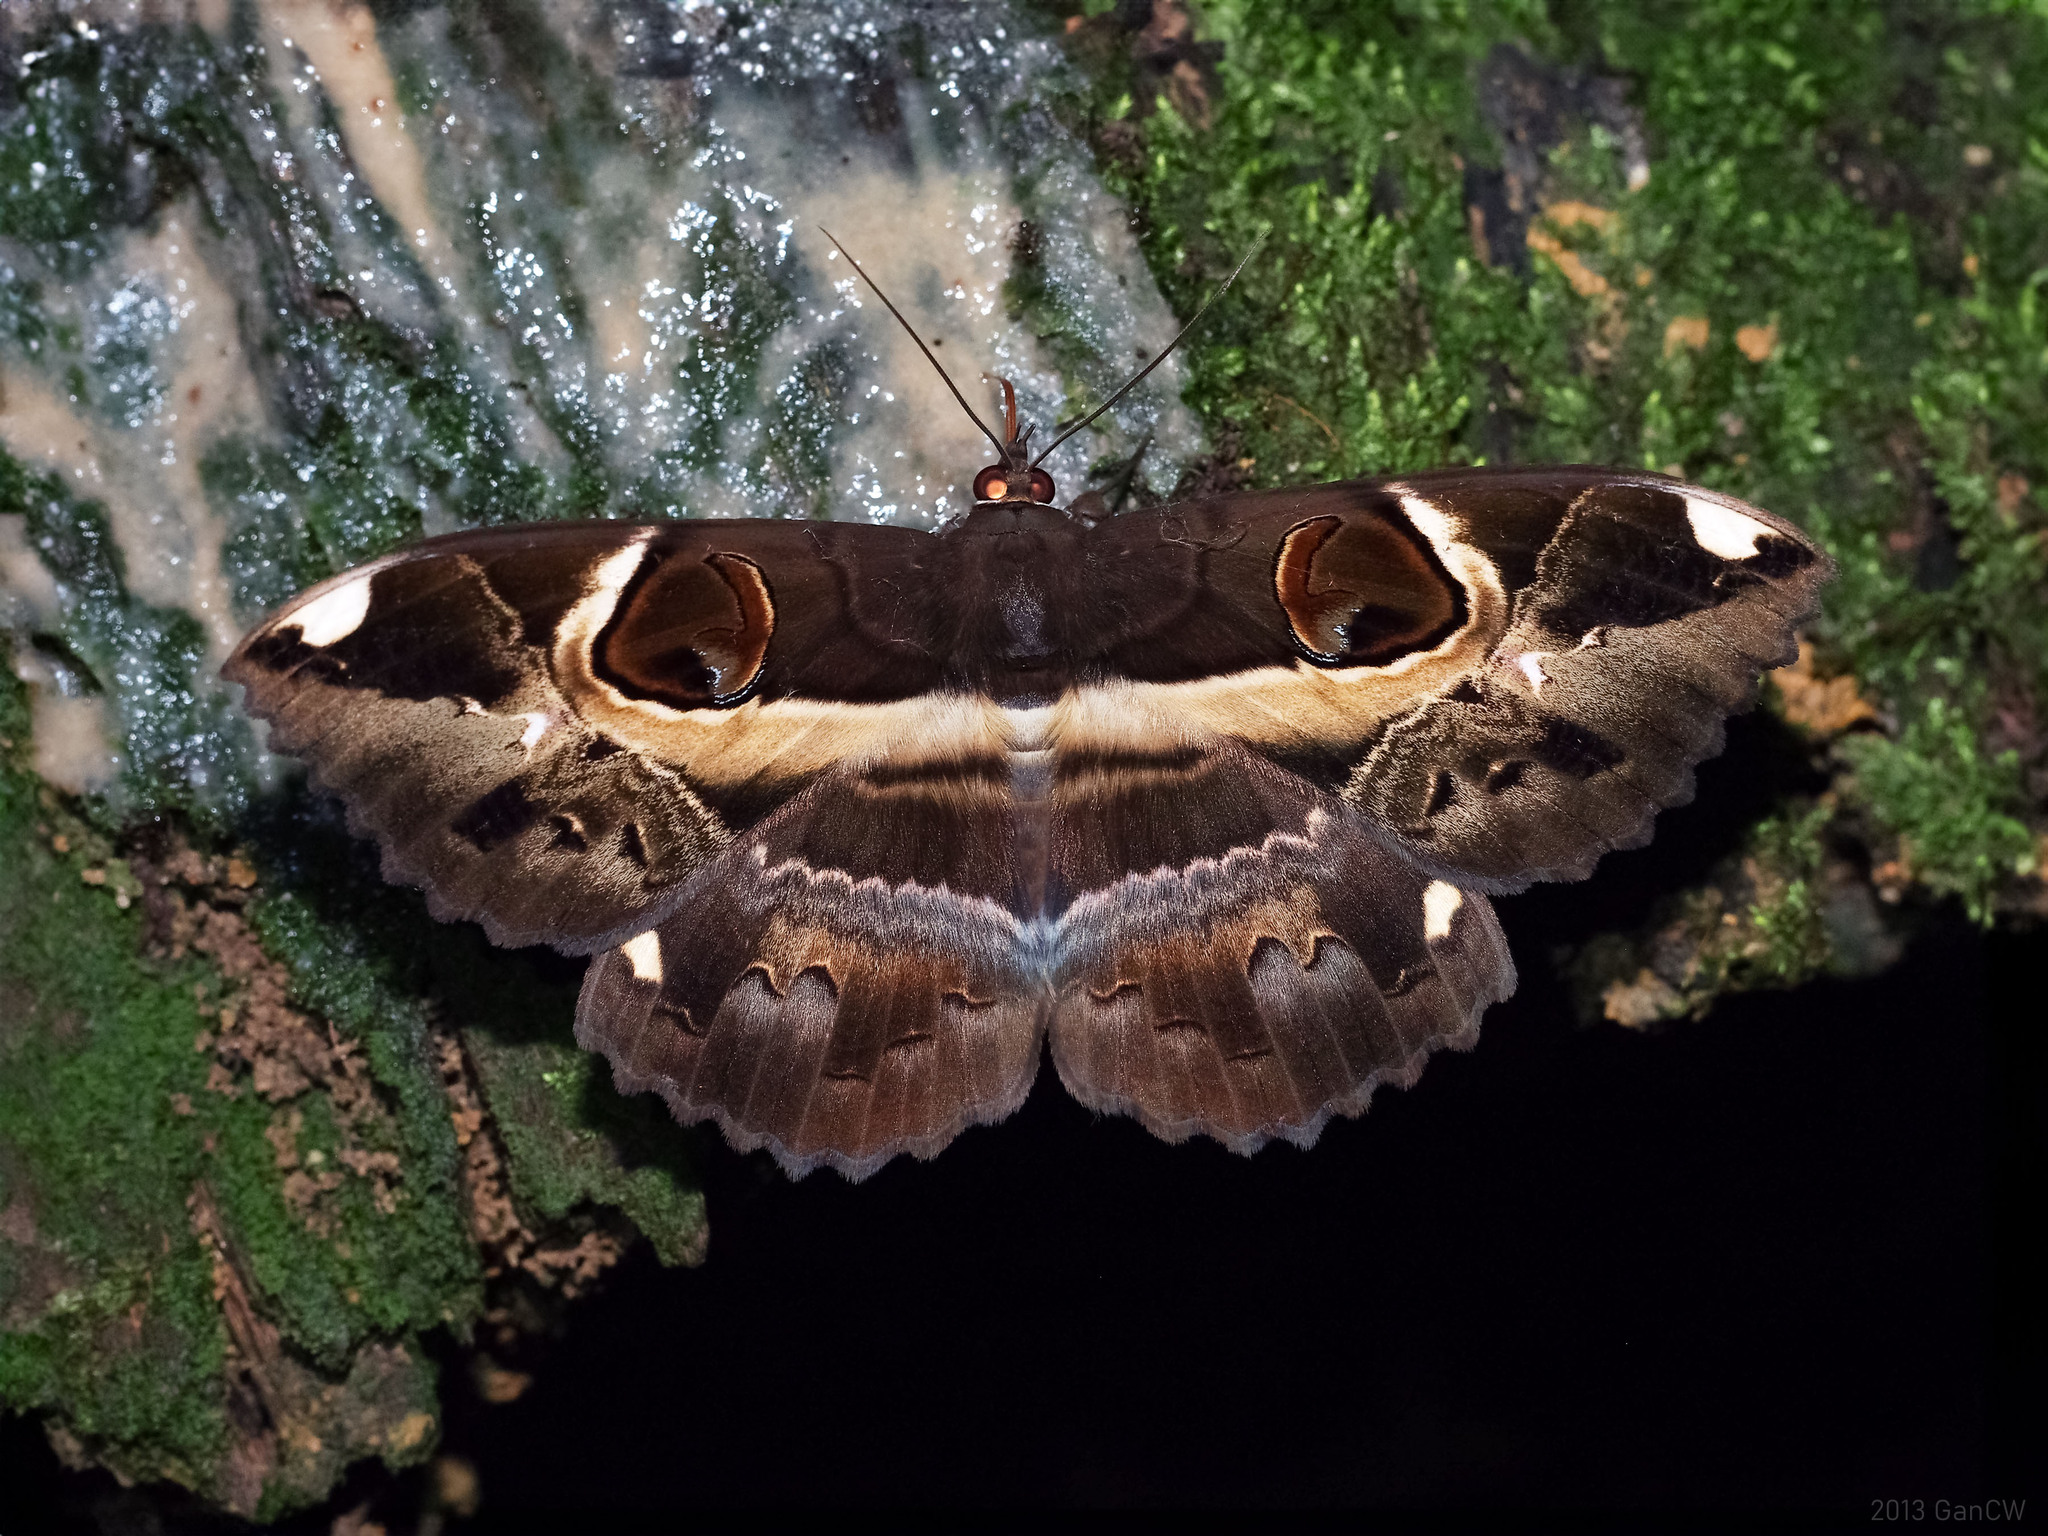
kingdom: Animalia
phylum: Arthropoda
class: Insecta
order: Lepidoptera
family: Erebidae
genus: Erebus
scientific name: Erebus ephesperis
